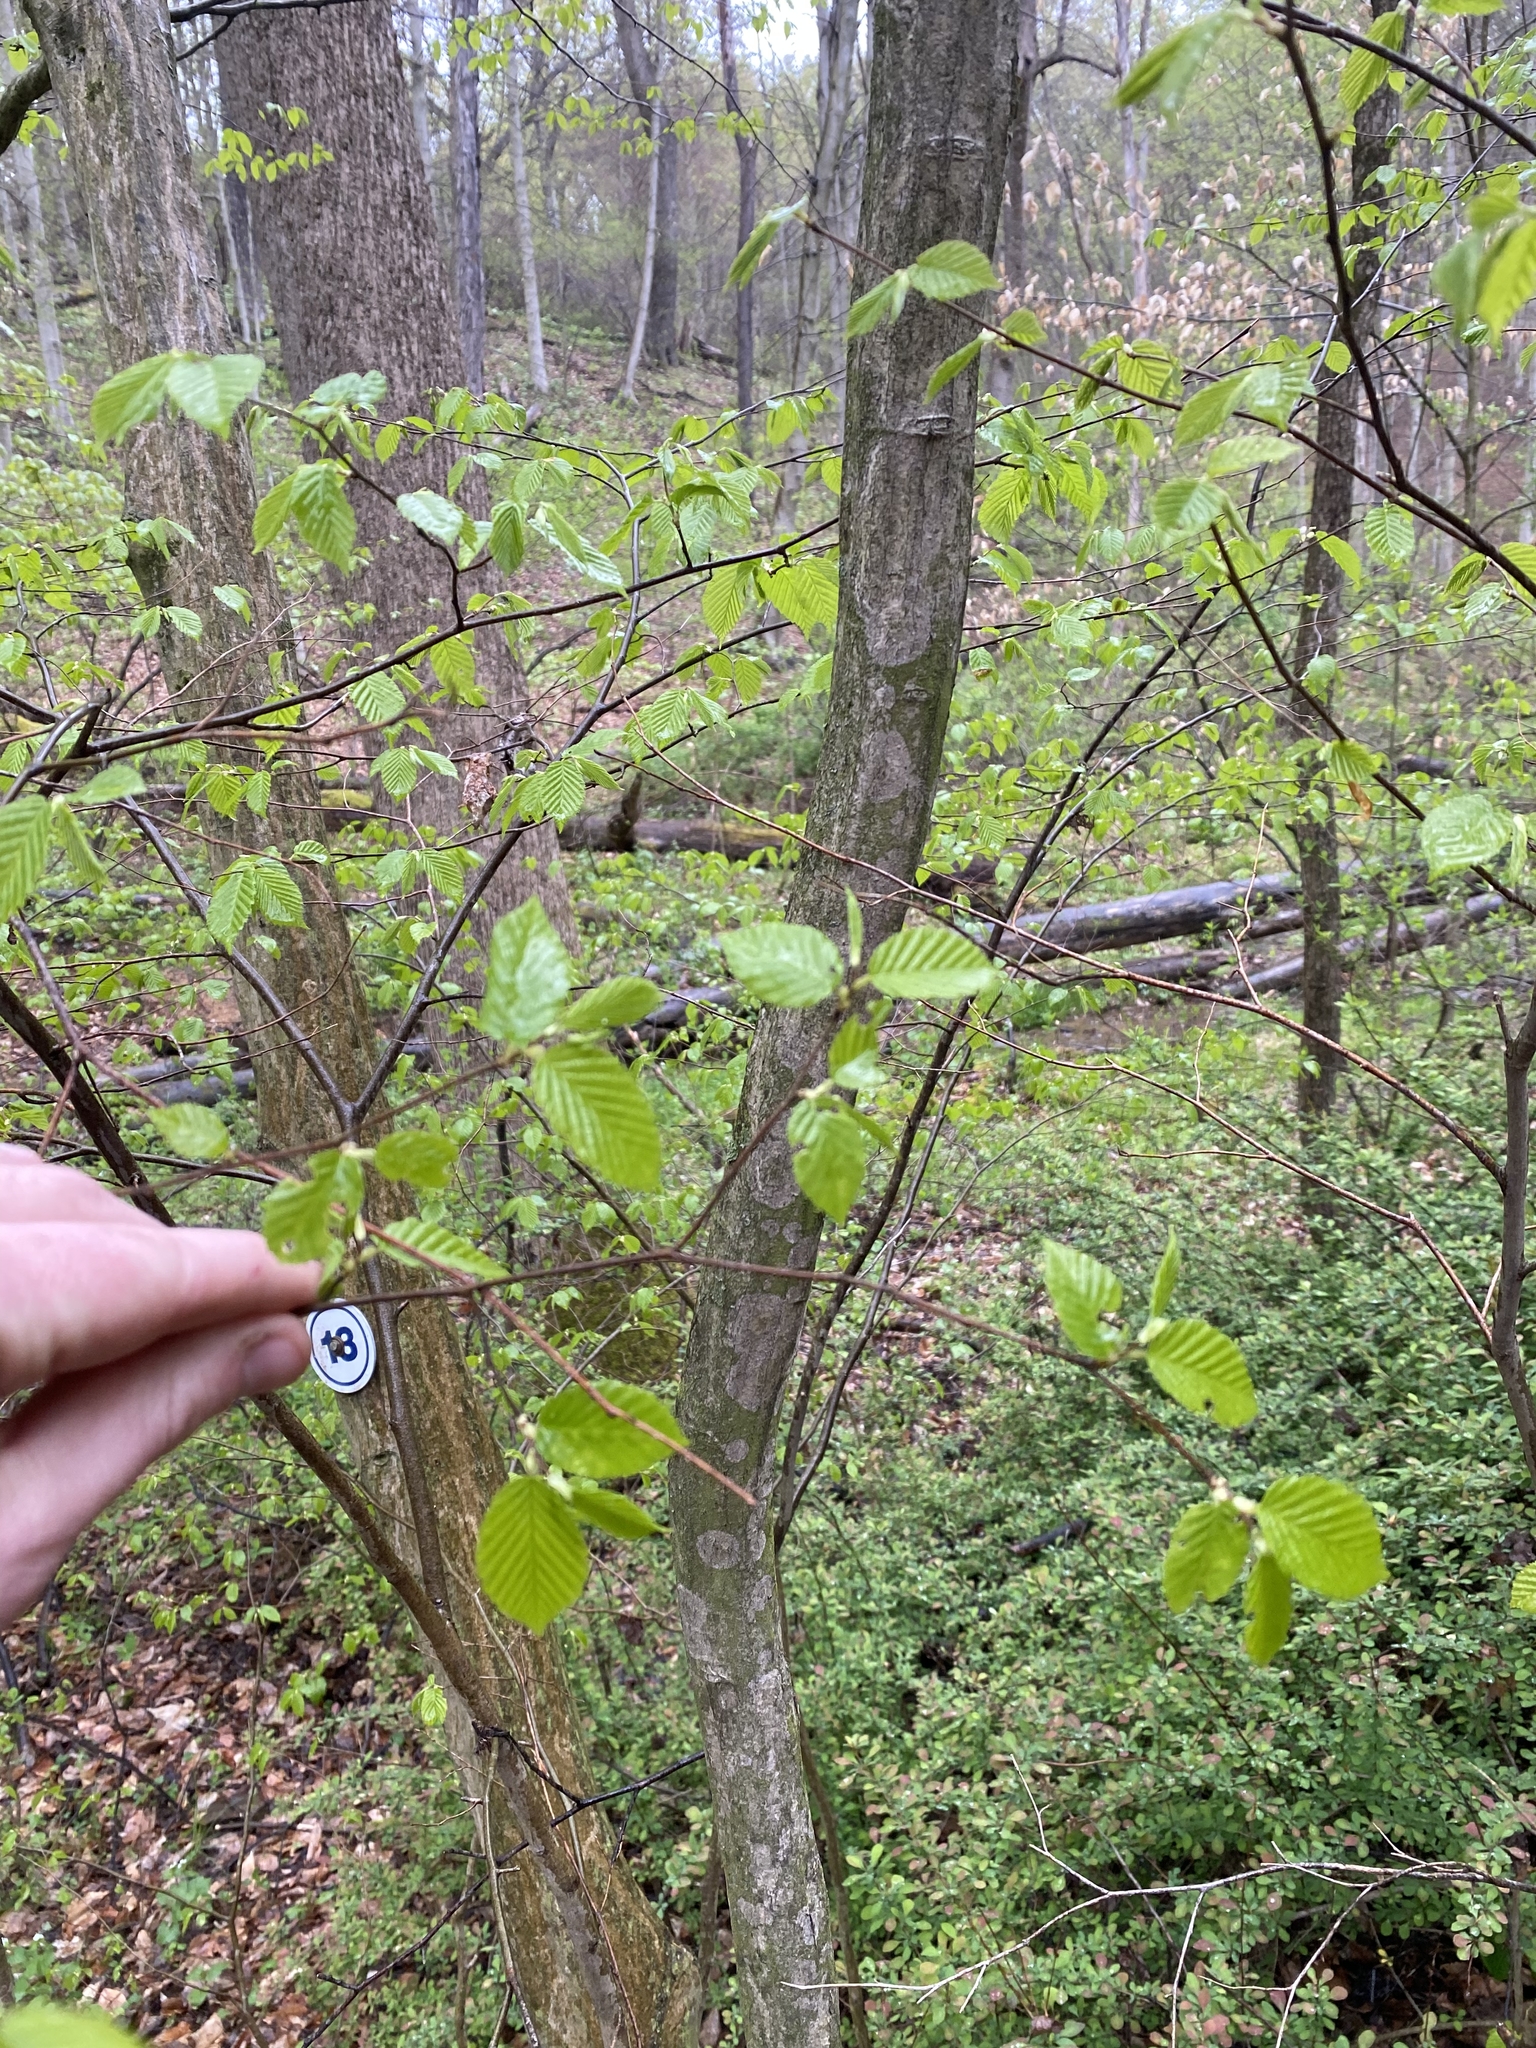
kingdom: Plantae
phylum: Tracheophyta
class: Magnoliopsida
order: Fagales
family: Betulaceae
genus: Carpinus
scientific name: Carpinus caroliniana
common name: American hornbeam
